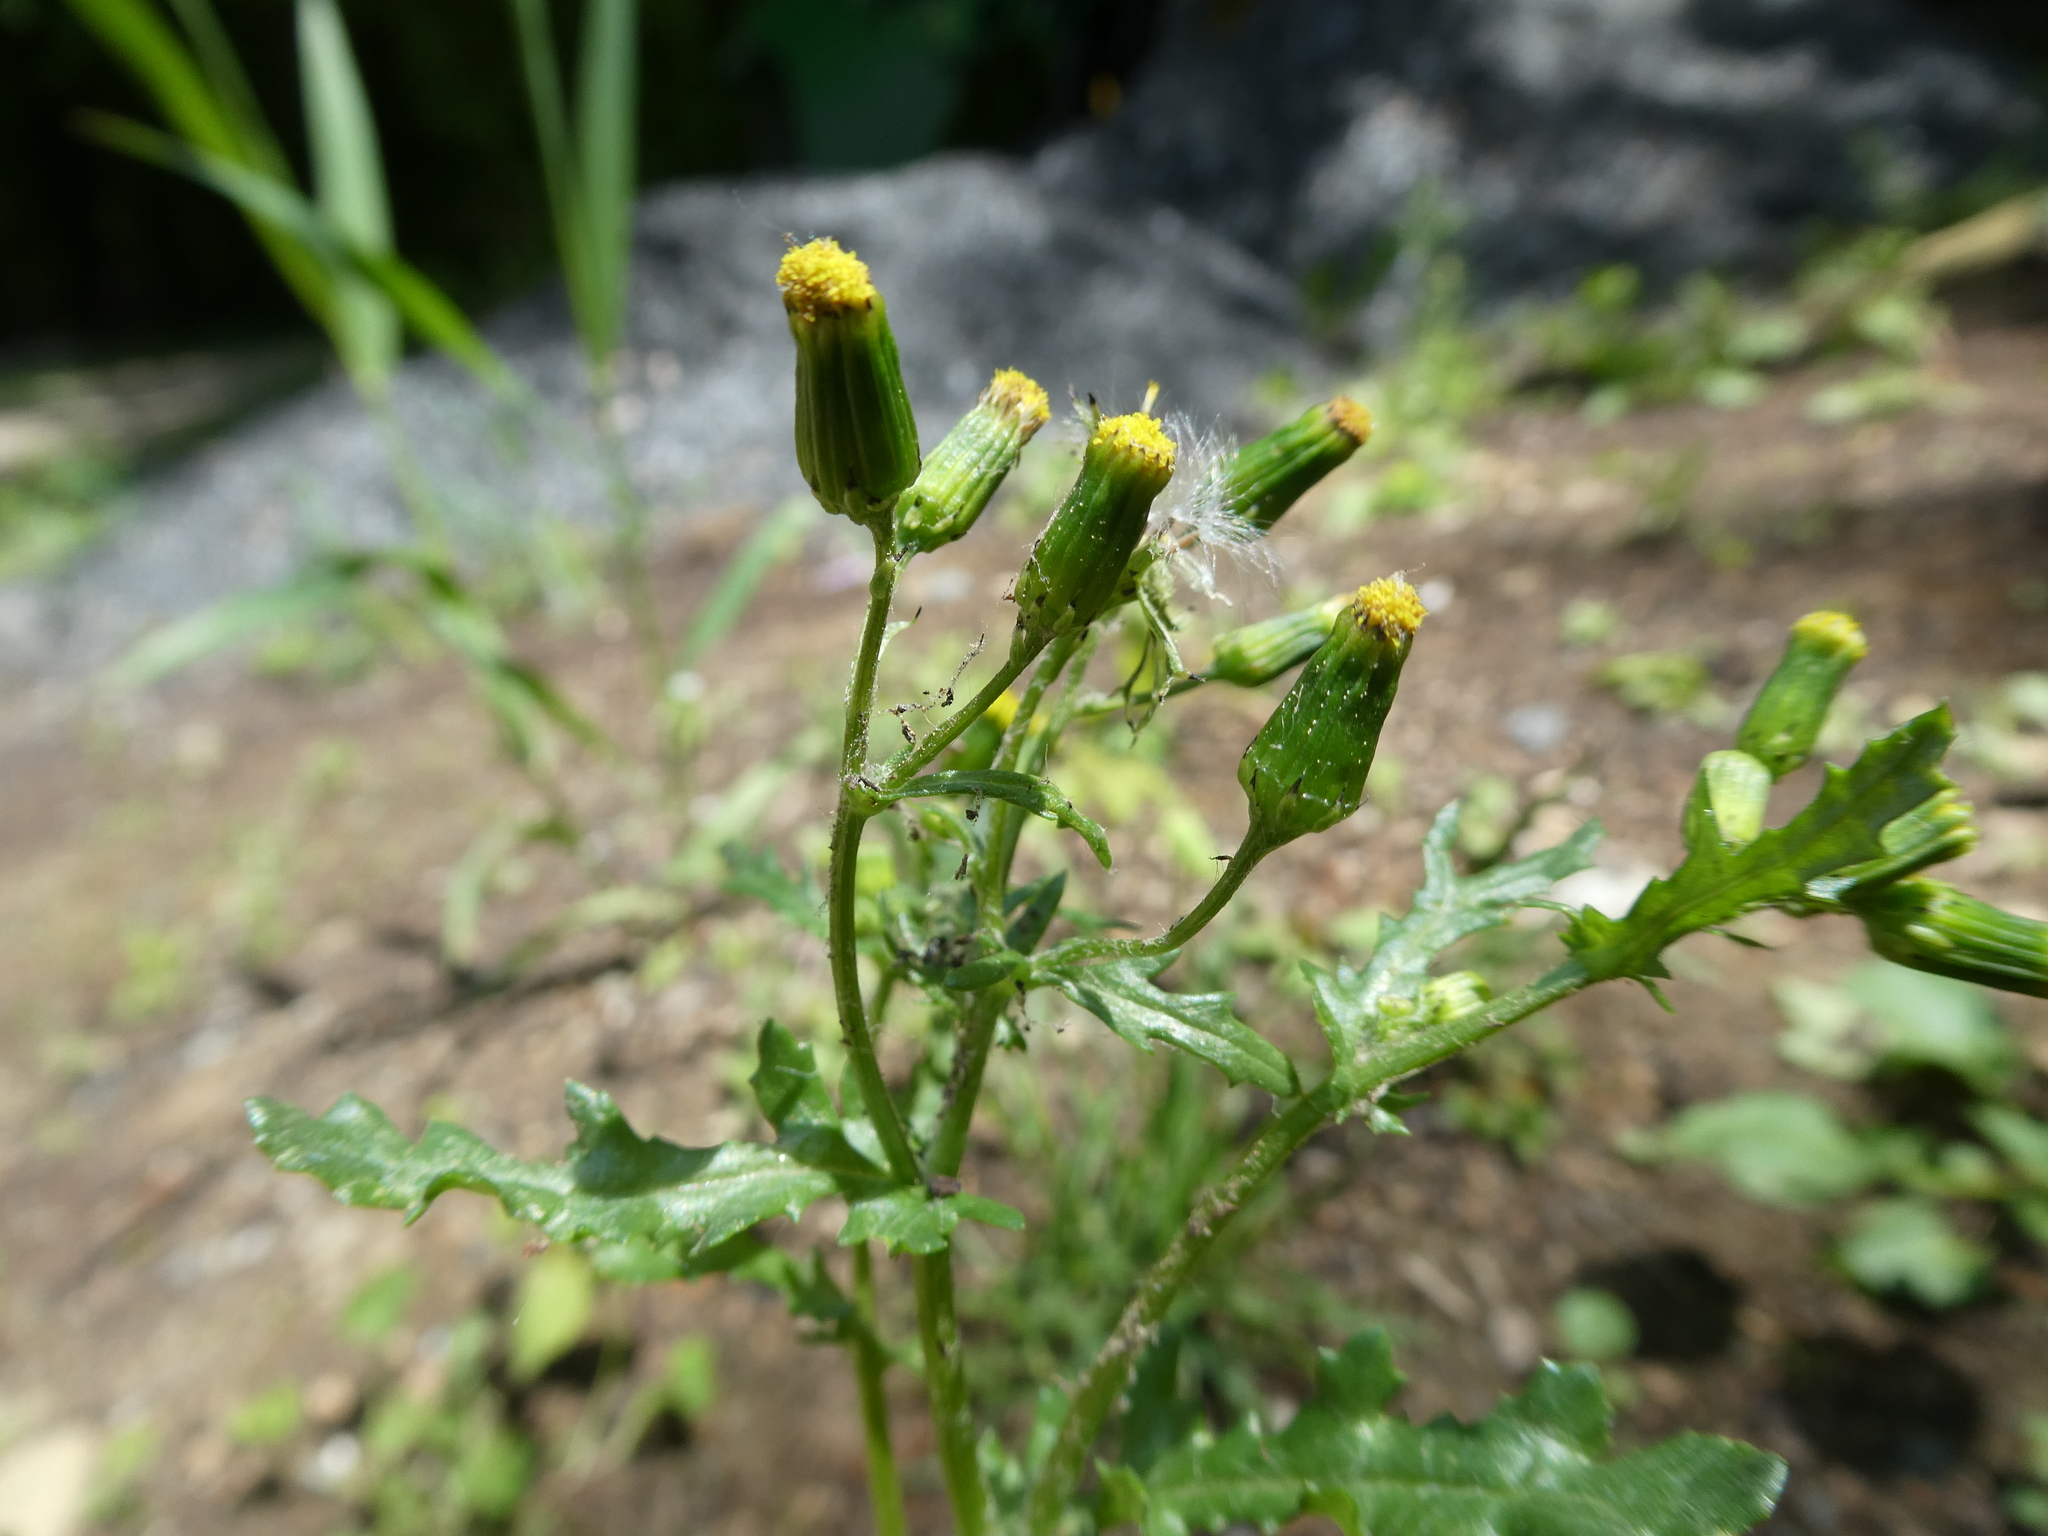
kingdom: Plantae
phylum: Tracheophyta
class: Magnoliopsida
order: Asterales
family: Asteraceae
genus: Senecio
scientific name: Senecio vulgaris
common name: Old-man-in-the-spring
